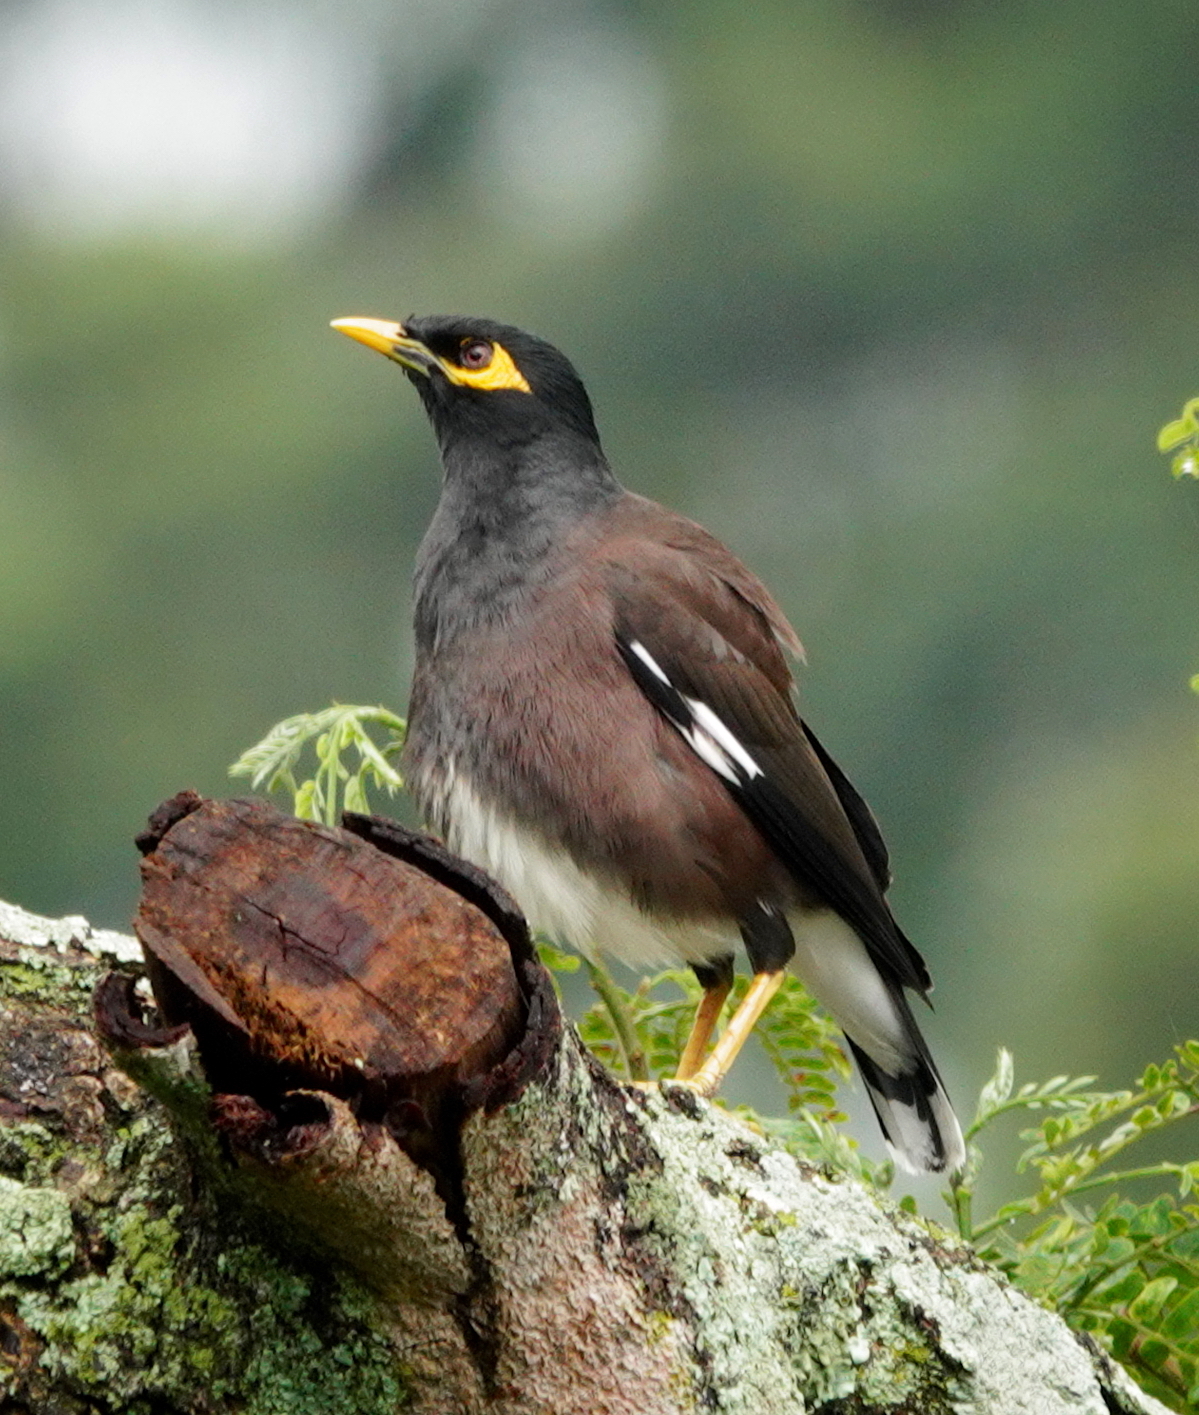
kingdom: Animalia
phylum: Chordata
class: Aves
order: Passeriformes
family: Sturnidae
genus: Acridotheres
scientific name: Acridotheres tristis
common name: Common myna
